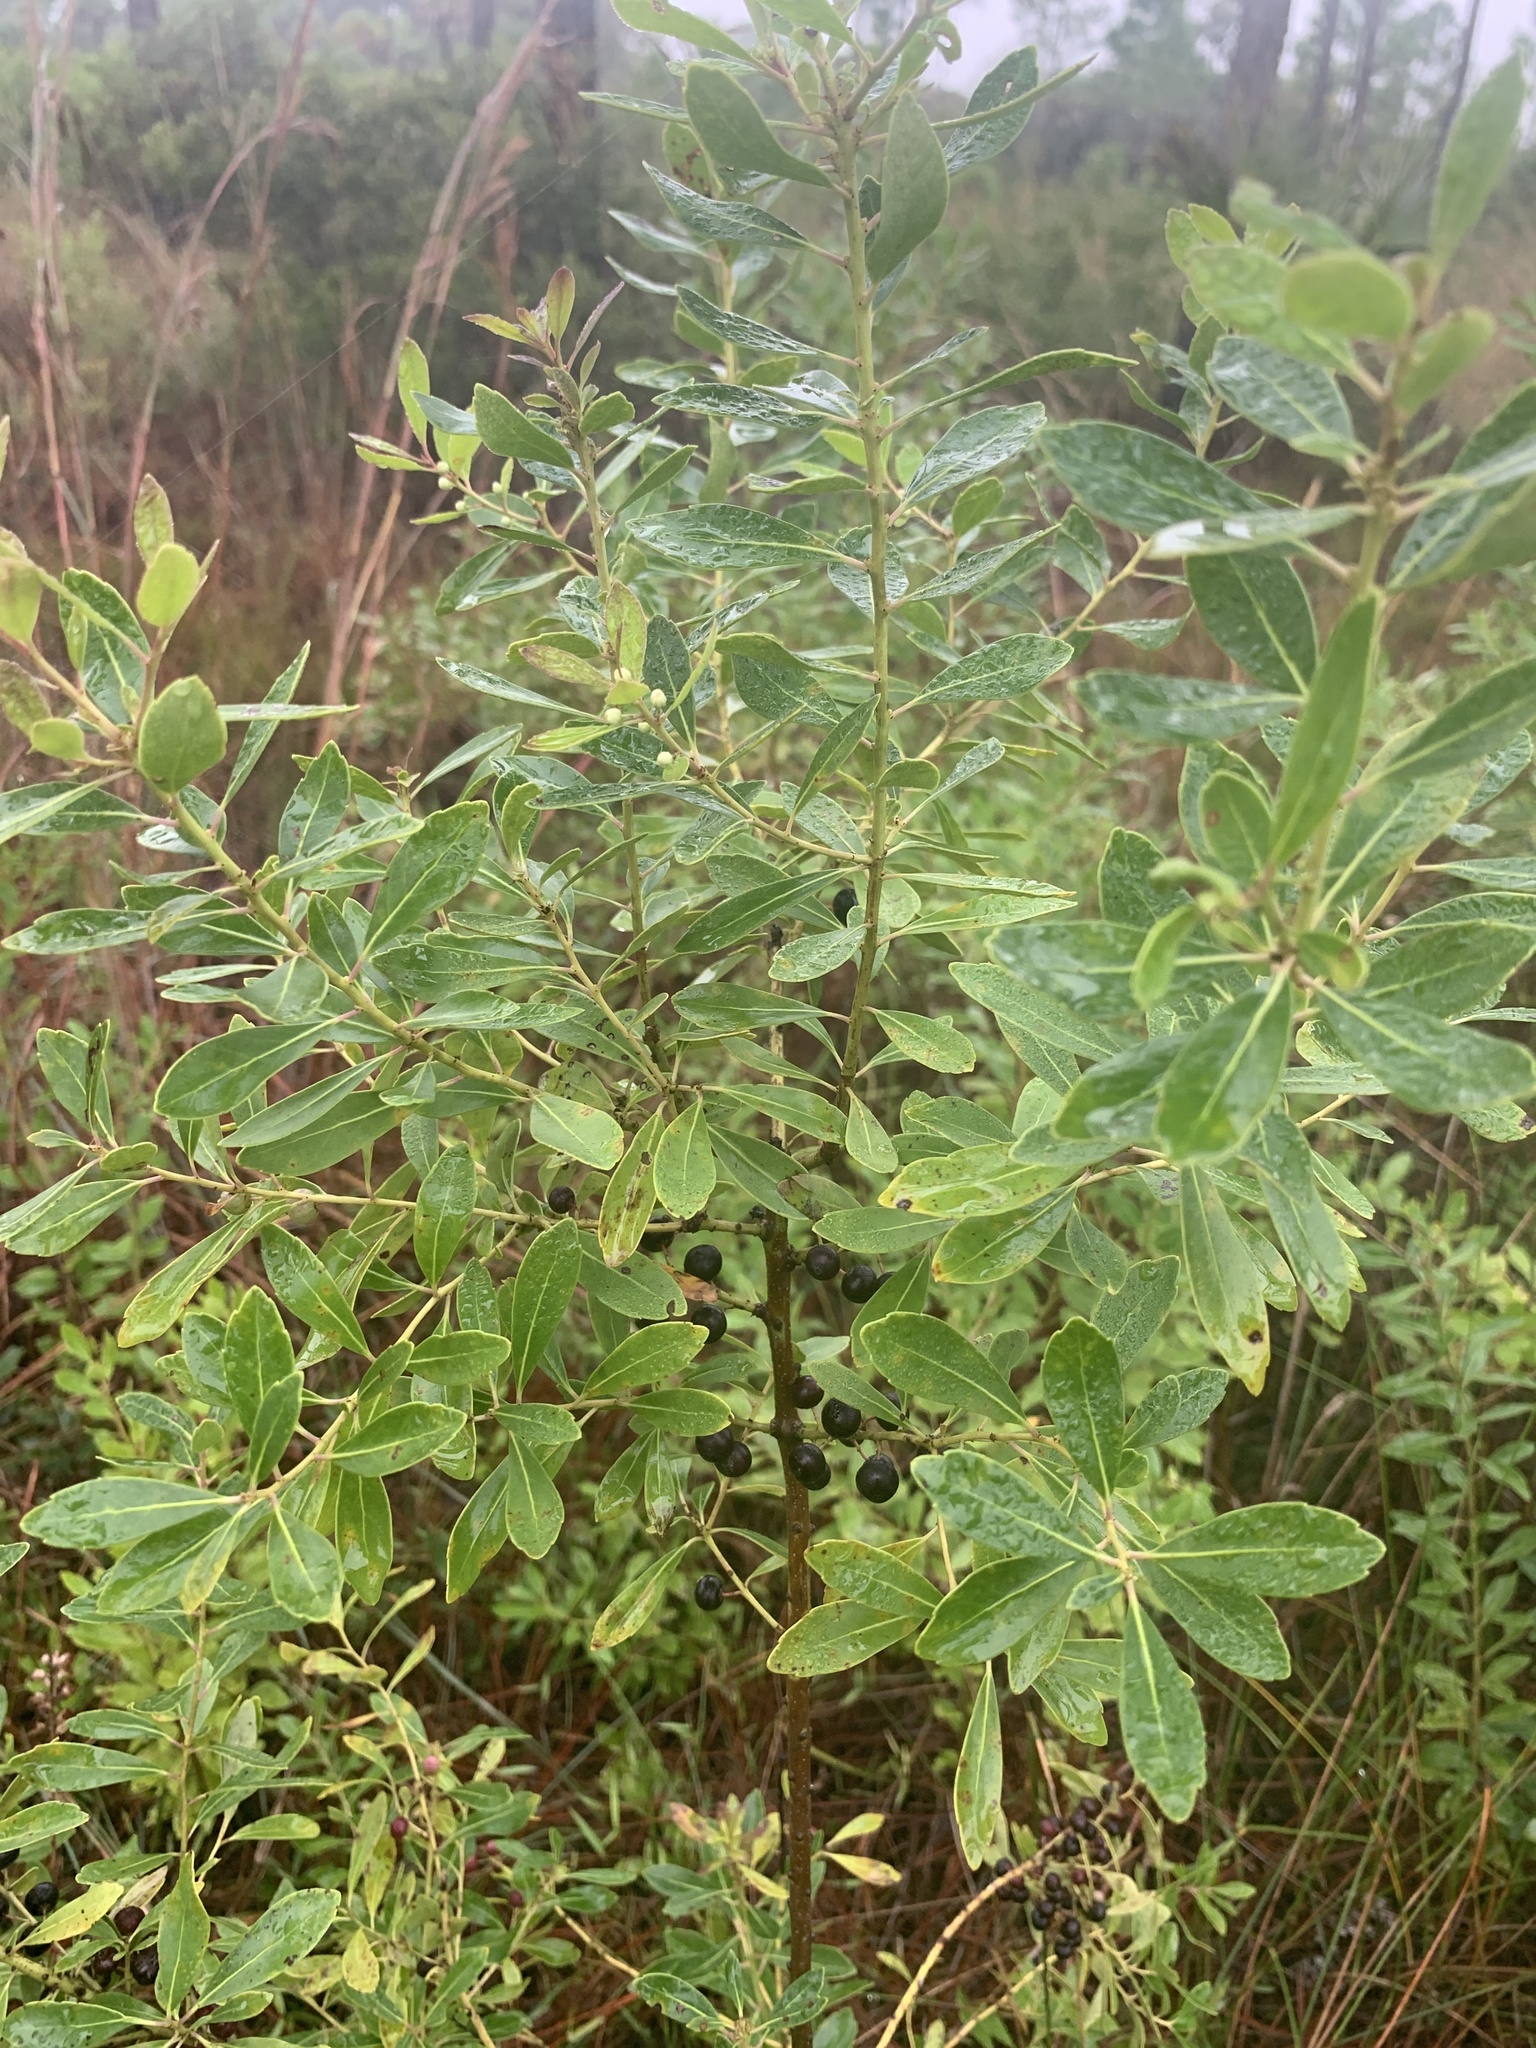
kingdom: Plantae
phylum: Tracheophyta
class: Magnoliopsida
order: Aquifoliales
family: Aquifoliaceae
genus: Ilex
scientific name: Ilex glabra
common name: Bitter gallberry
